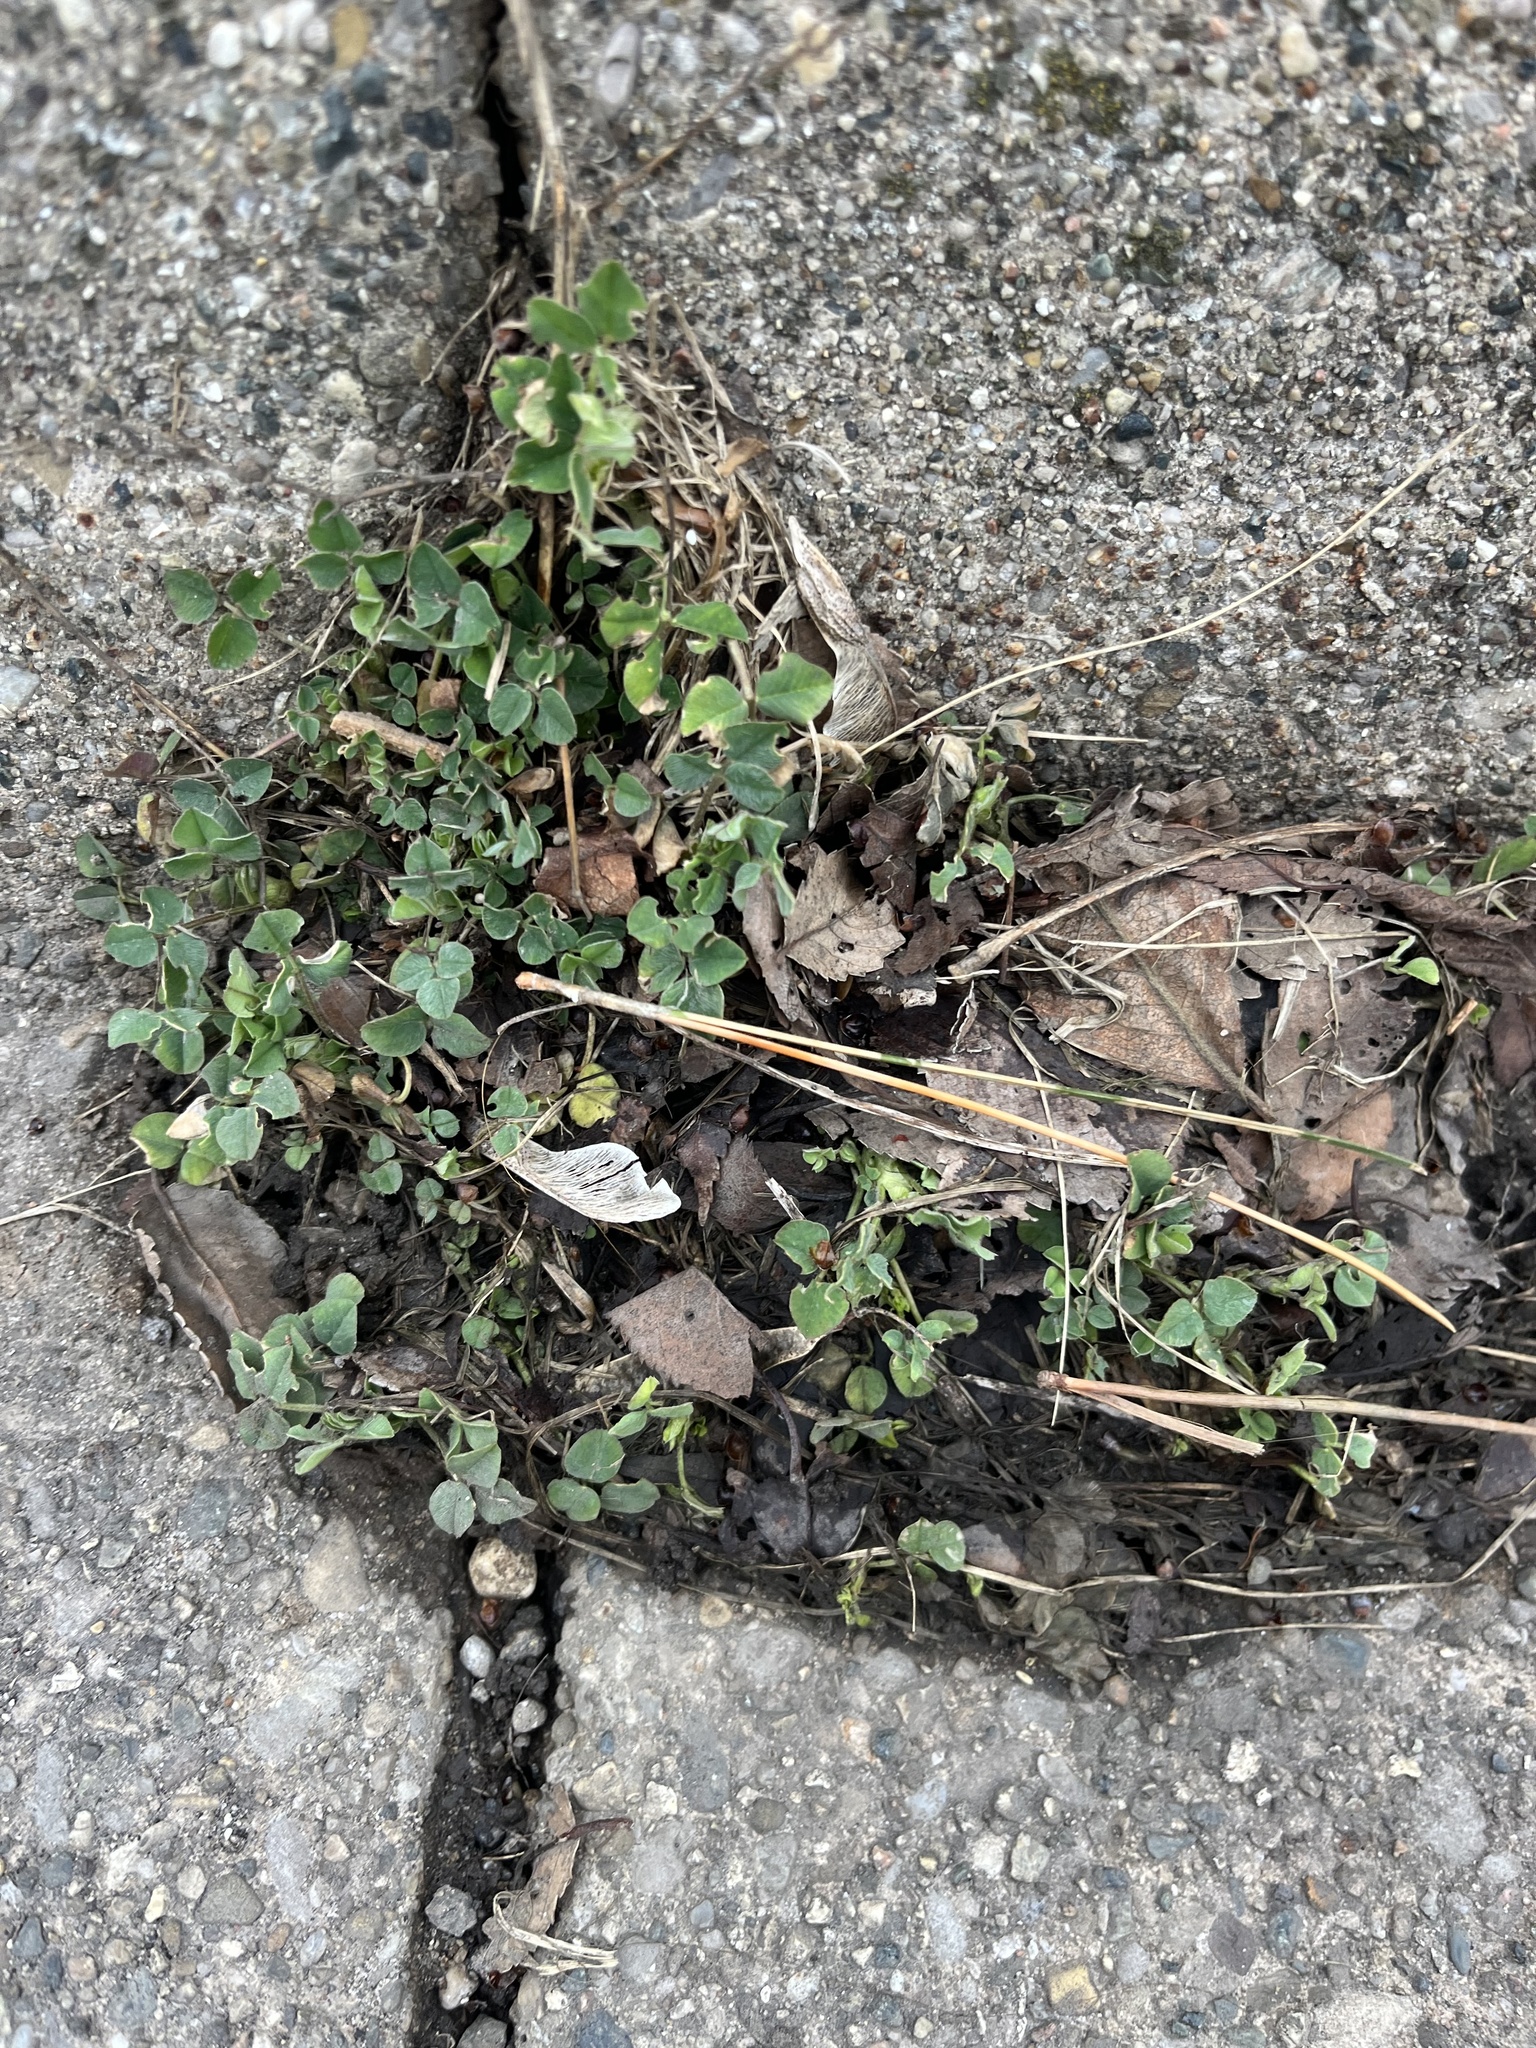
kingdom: Plantae
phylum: Tracheophyta
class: Magnoliopsida
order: Fabales
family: Fabaceae
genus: Medicago
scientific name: Medicago lupulina
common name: Black medick
